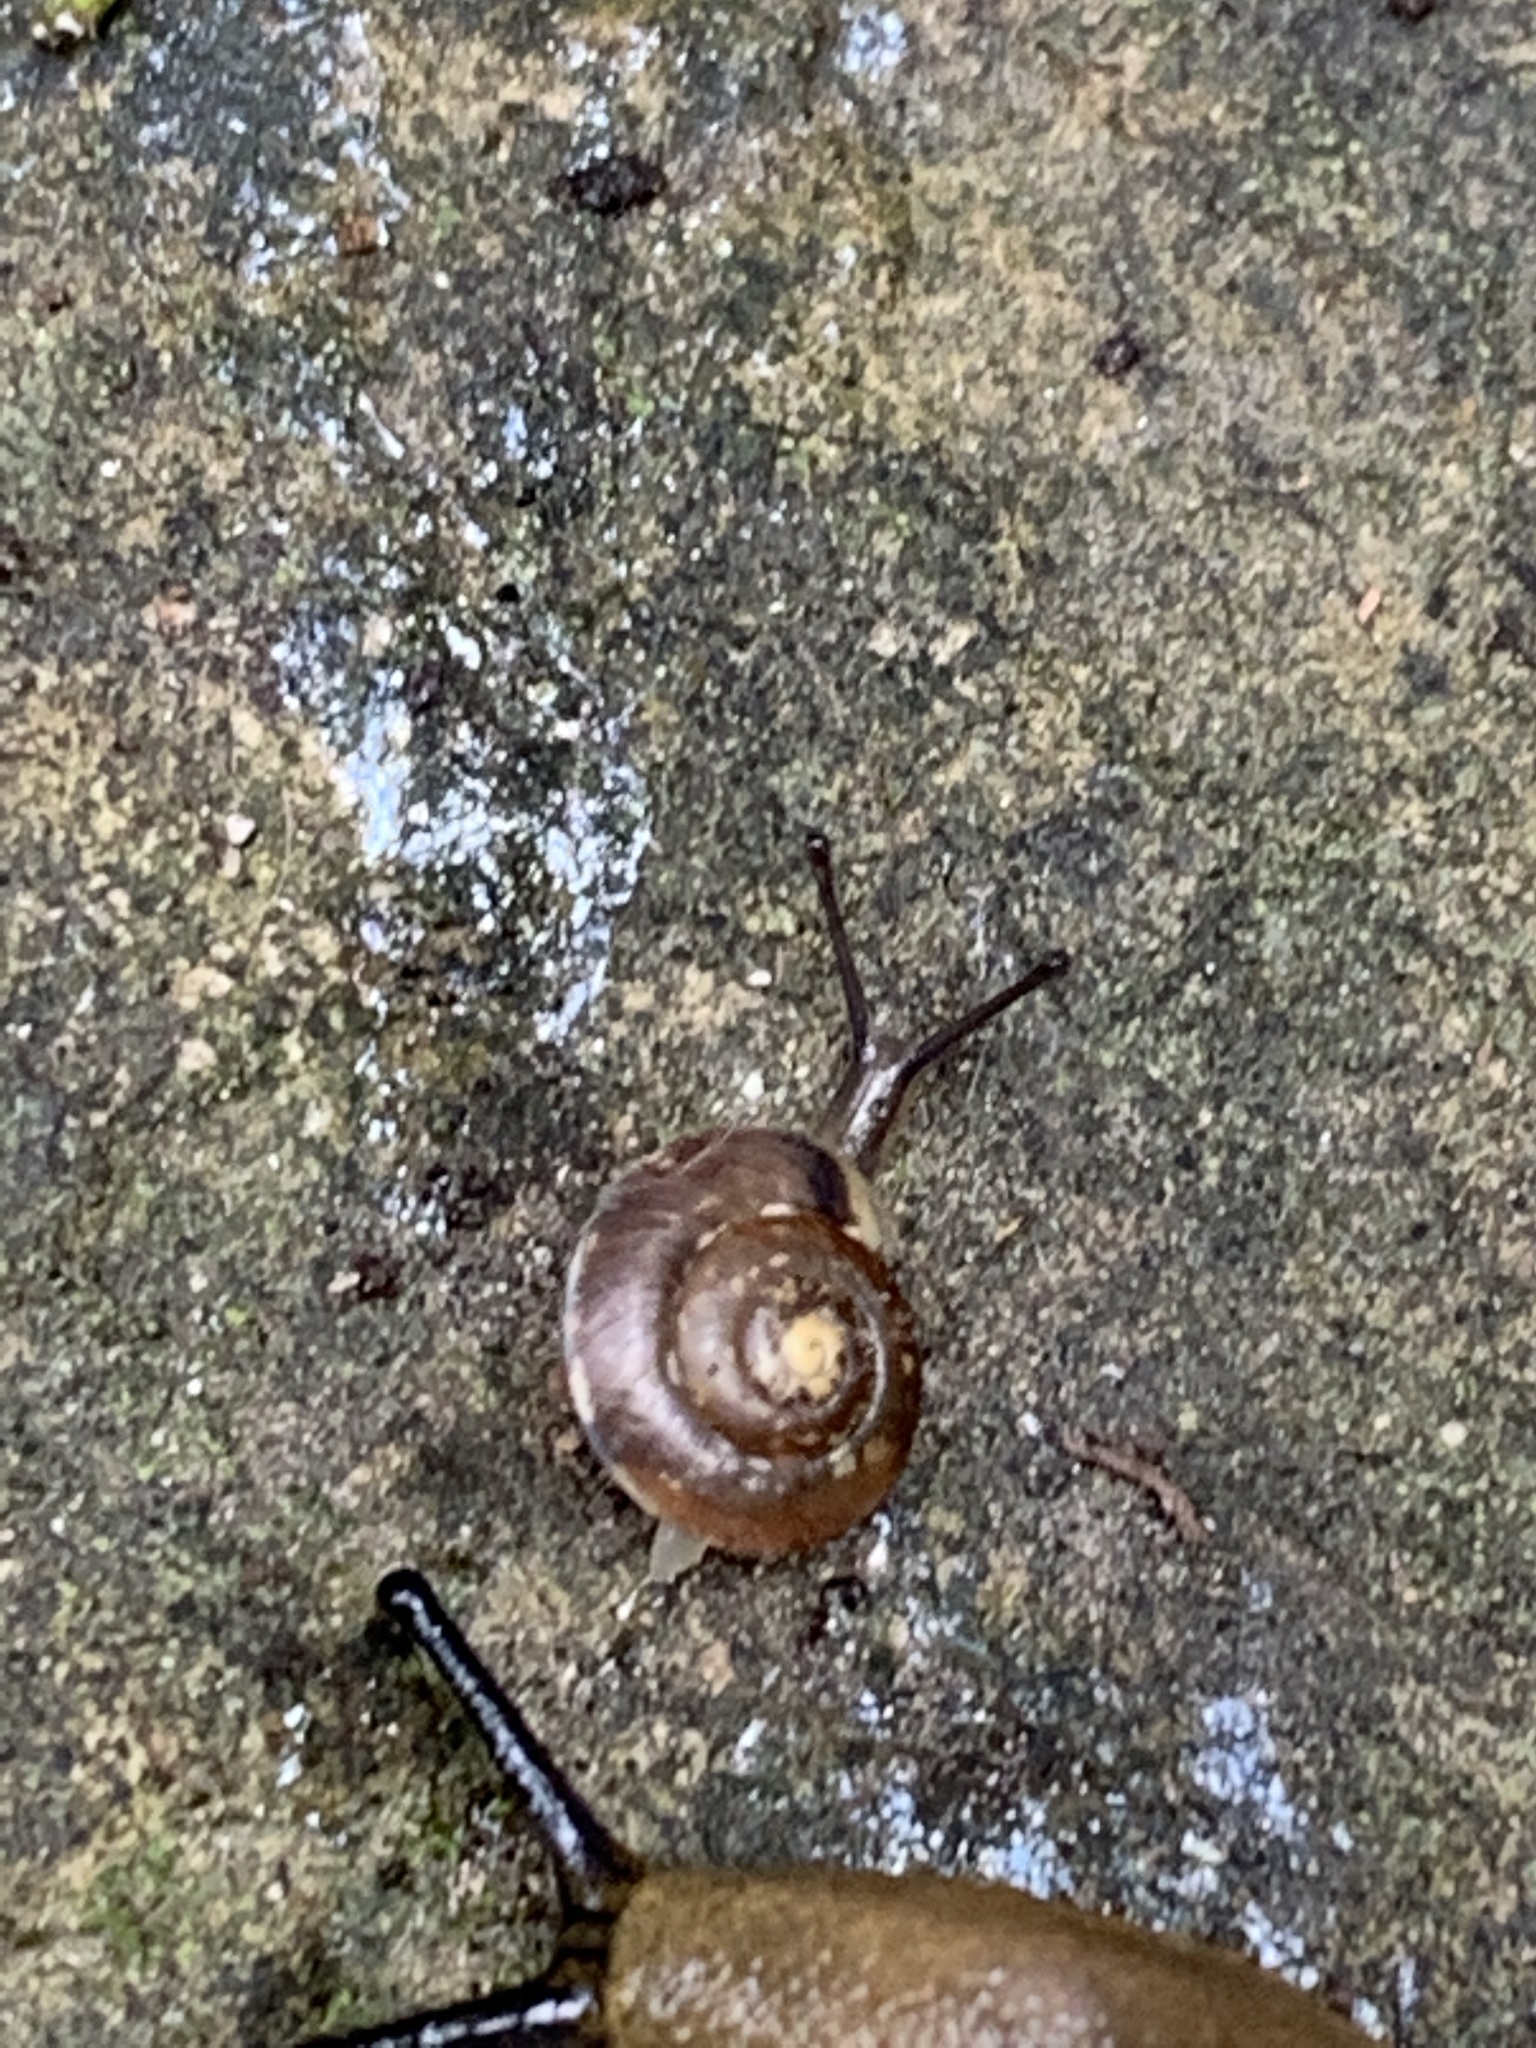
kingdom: Animalia
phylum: Mollusca
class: Gastropoda
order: Stylommatophora
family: Hygromiidae
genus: Hygromia
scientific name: Hygromia cinctella
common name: Girdled snail
